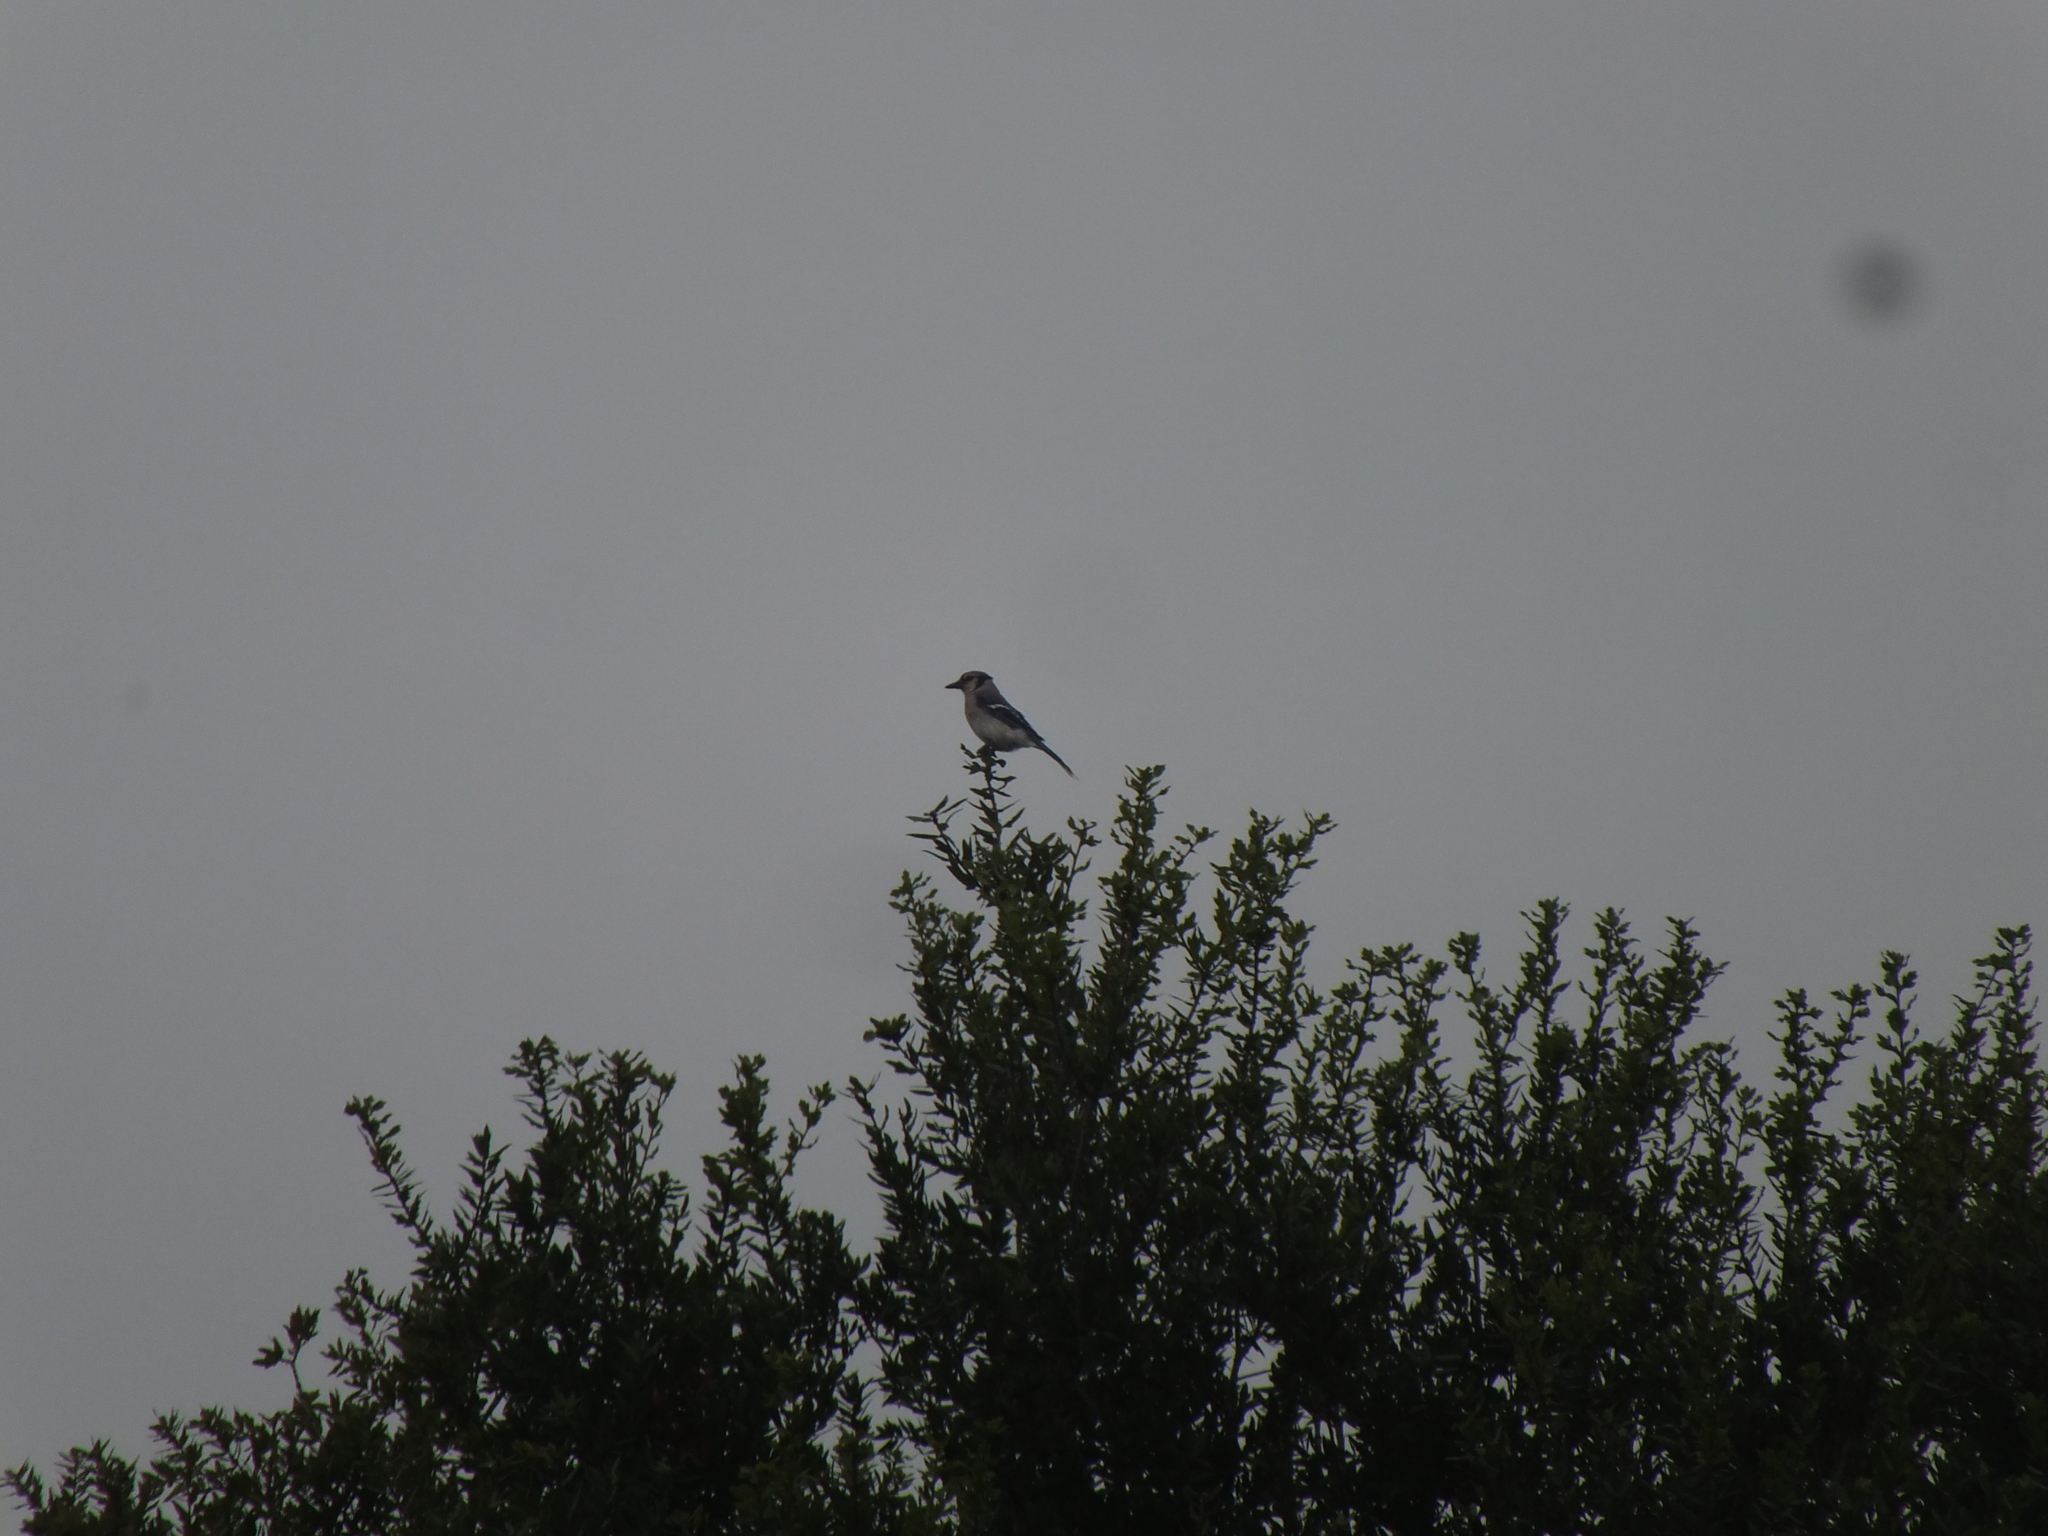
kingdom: Animalia
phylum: Chordata
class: Aves
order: Passeriformes
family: Corvidae
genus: Cyanocitta
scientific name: Cyanocitta cristata
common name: Blue jay
